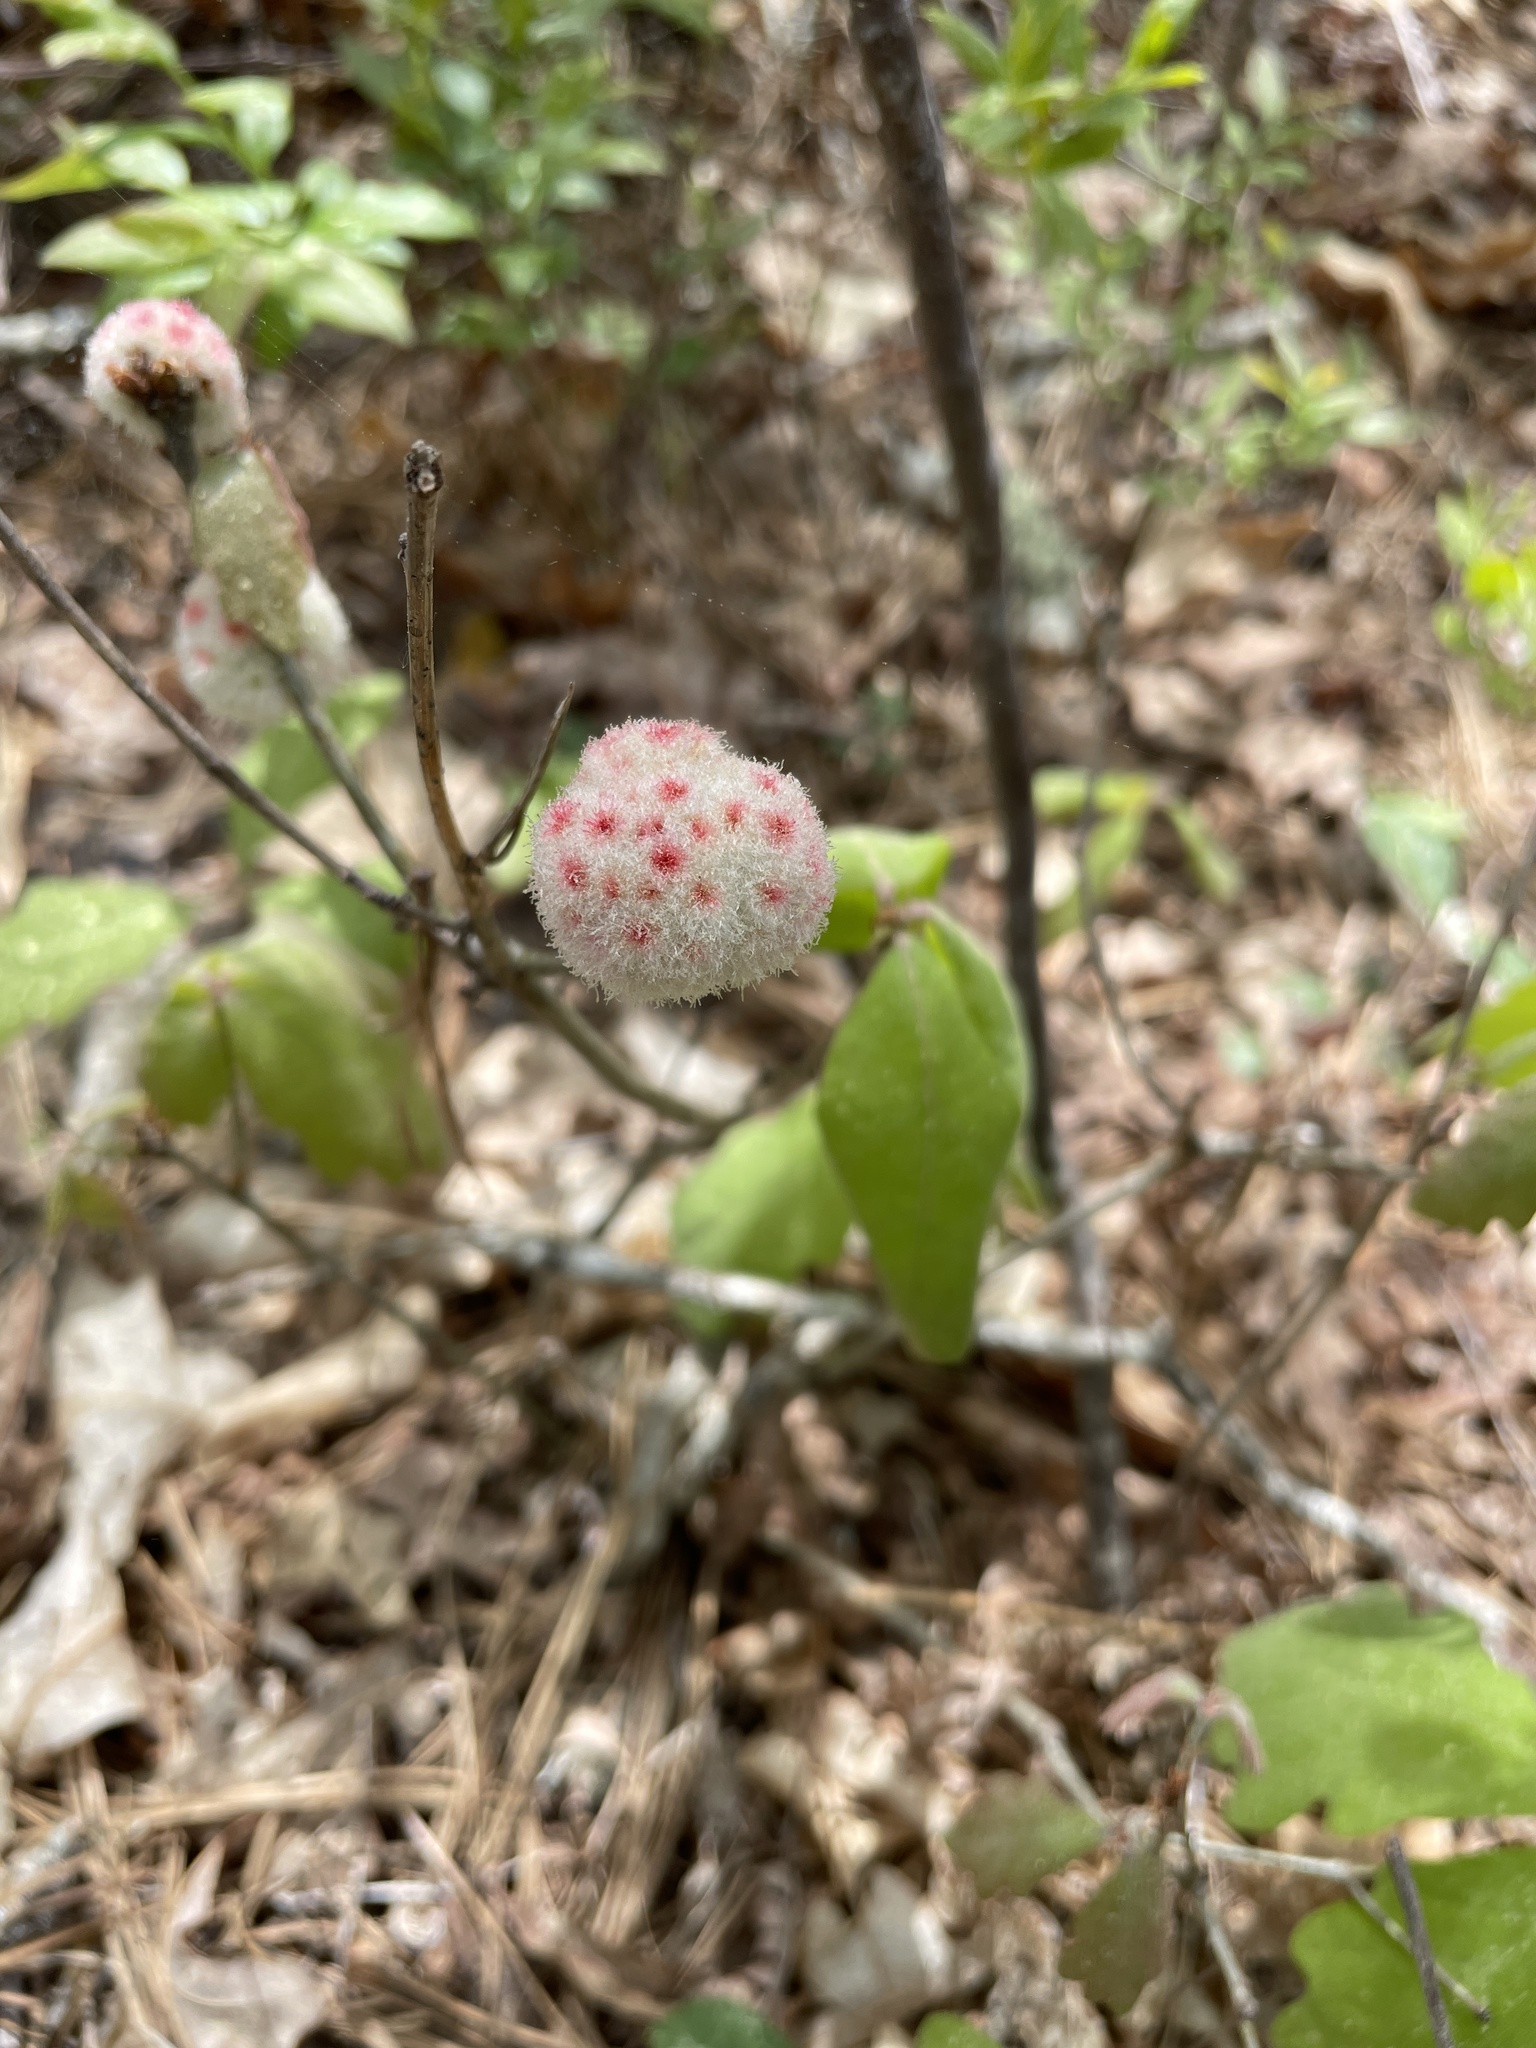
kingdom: Animalia
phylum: Arthropoda
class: Insecta
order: Hymenoptera
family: Cynipidae
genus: Callirhytis
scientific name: Callirhytis
